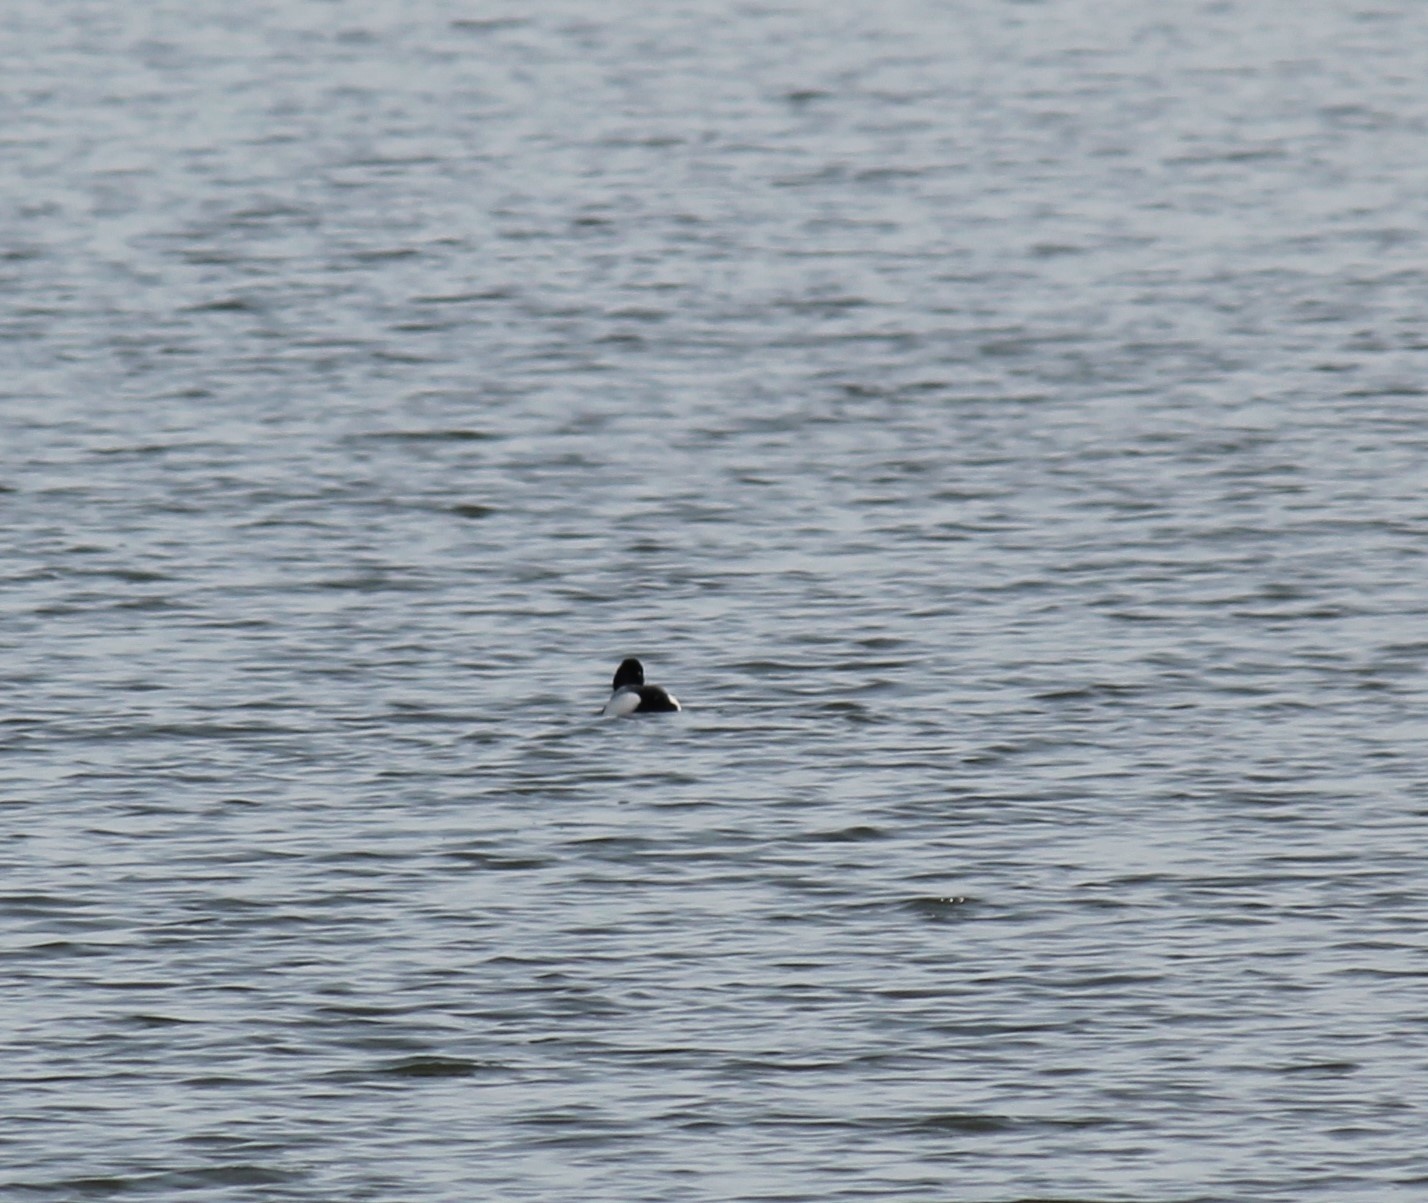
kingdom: Animalia
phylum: Chordata
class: Aves
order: Anseriformes
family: Anatidae
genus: Aythya
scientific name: Aythya affinis
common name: Lesser scaup
